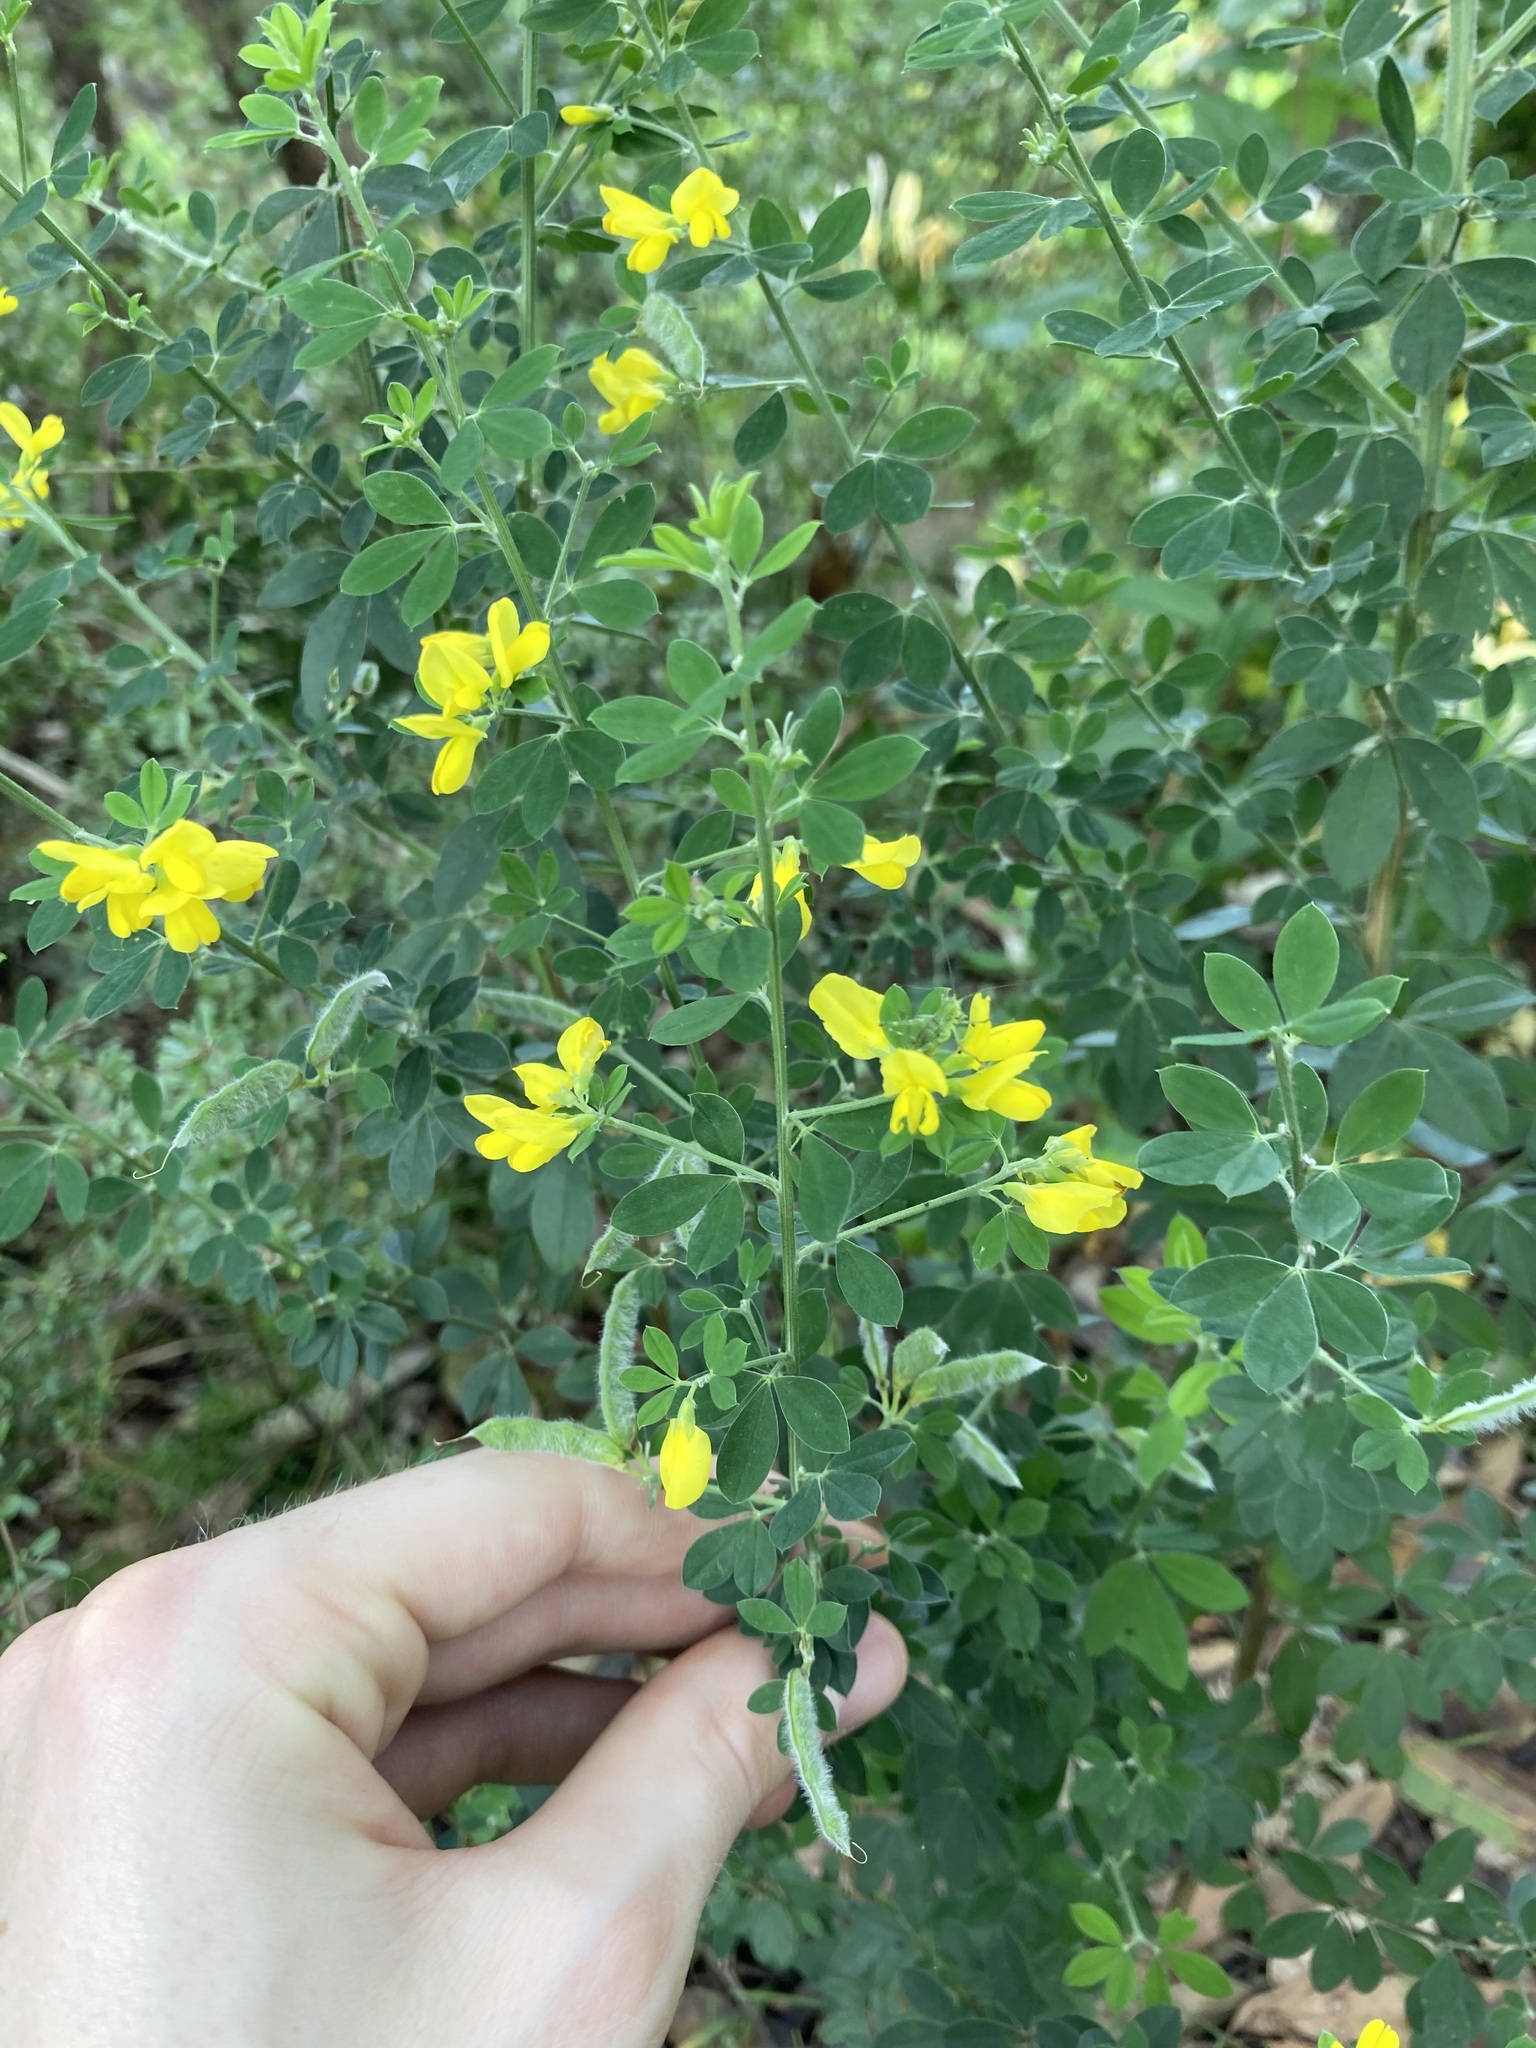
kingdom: Plantae
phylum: Tracheophyta
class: Magnoliopsida
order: Fabales
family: Fabaceae
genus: Genista
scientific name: Genista monspessulana
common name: Montpellier broom
